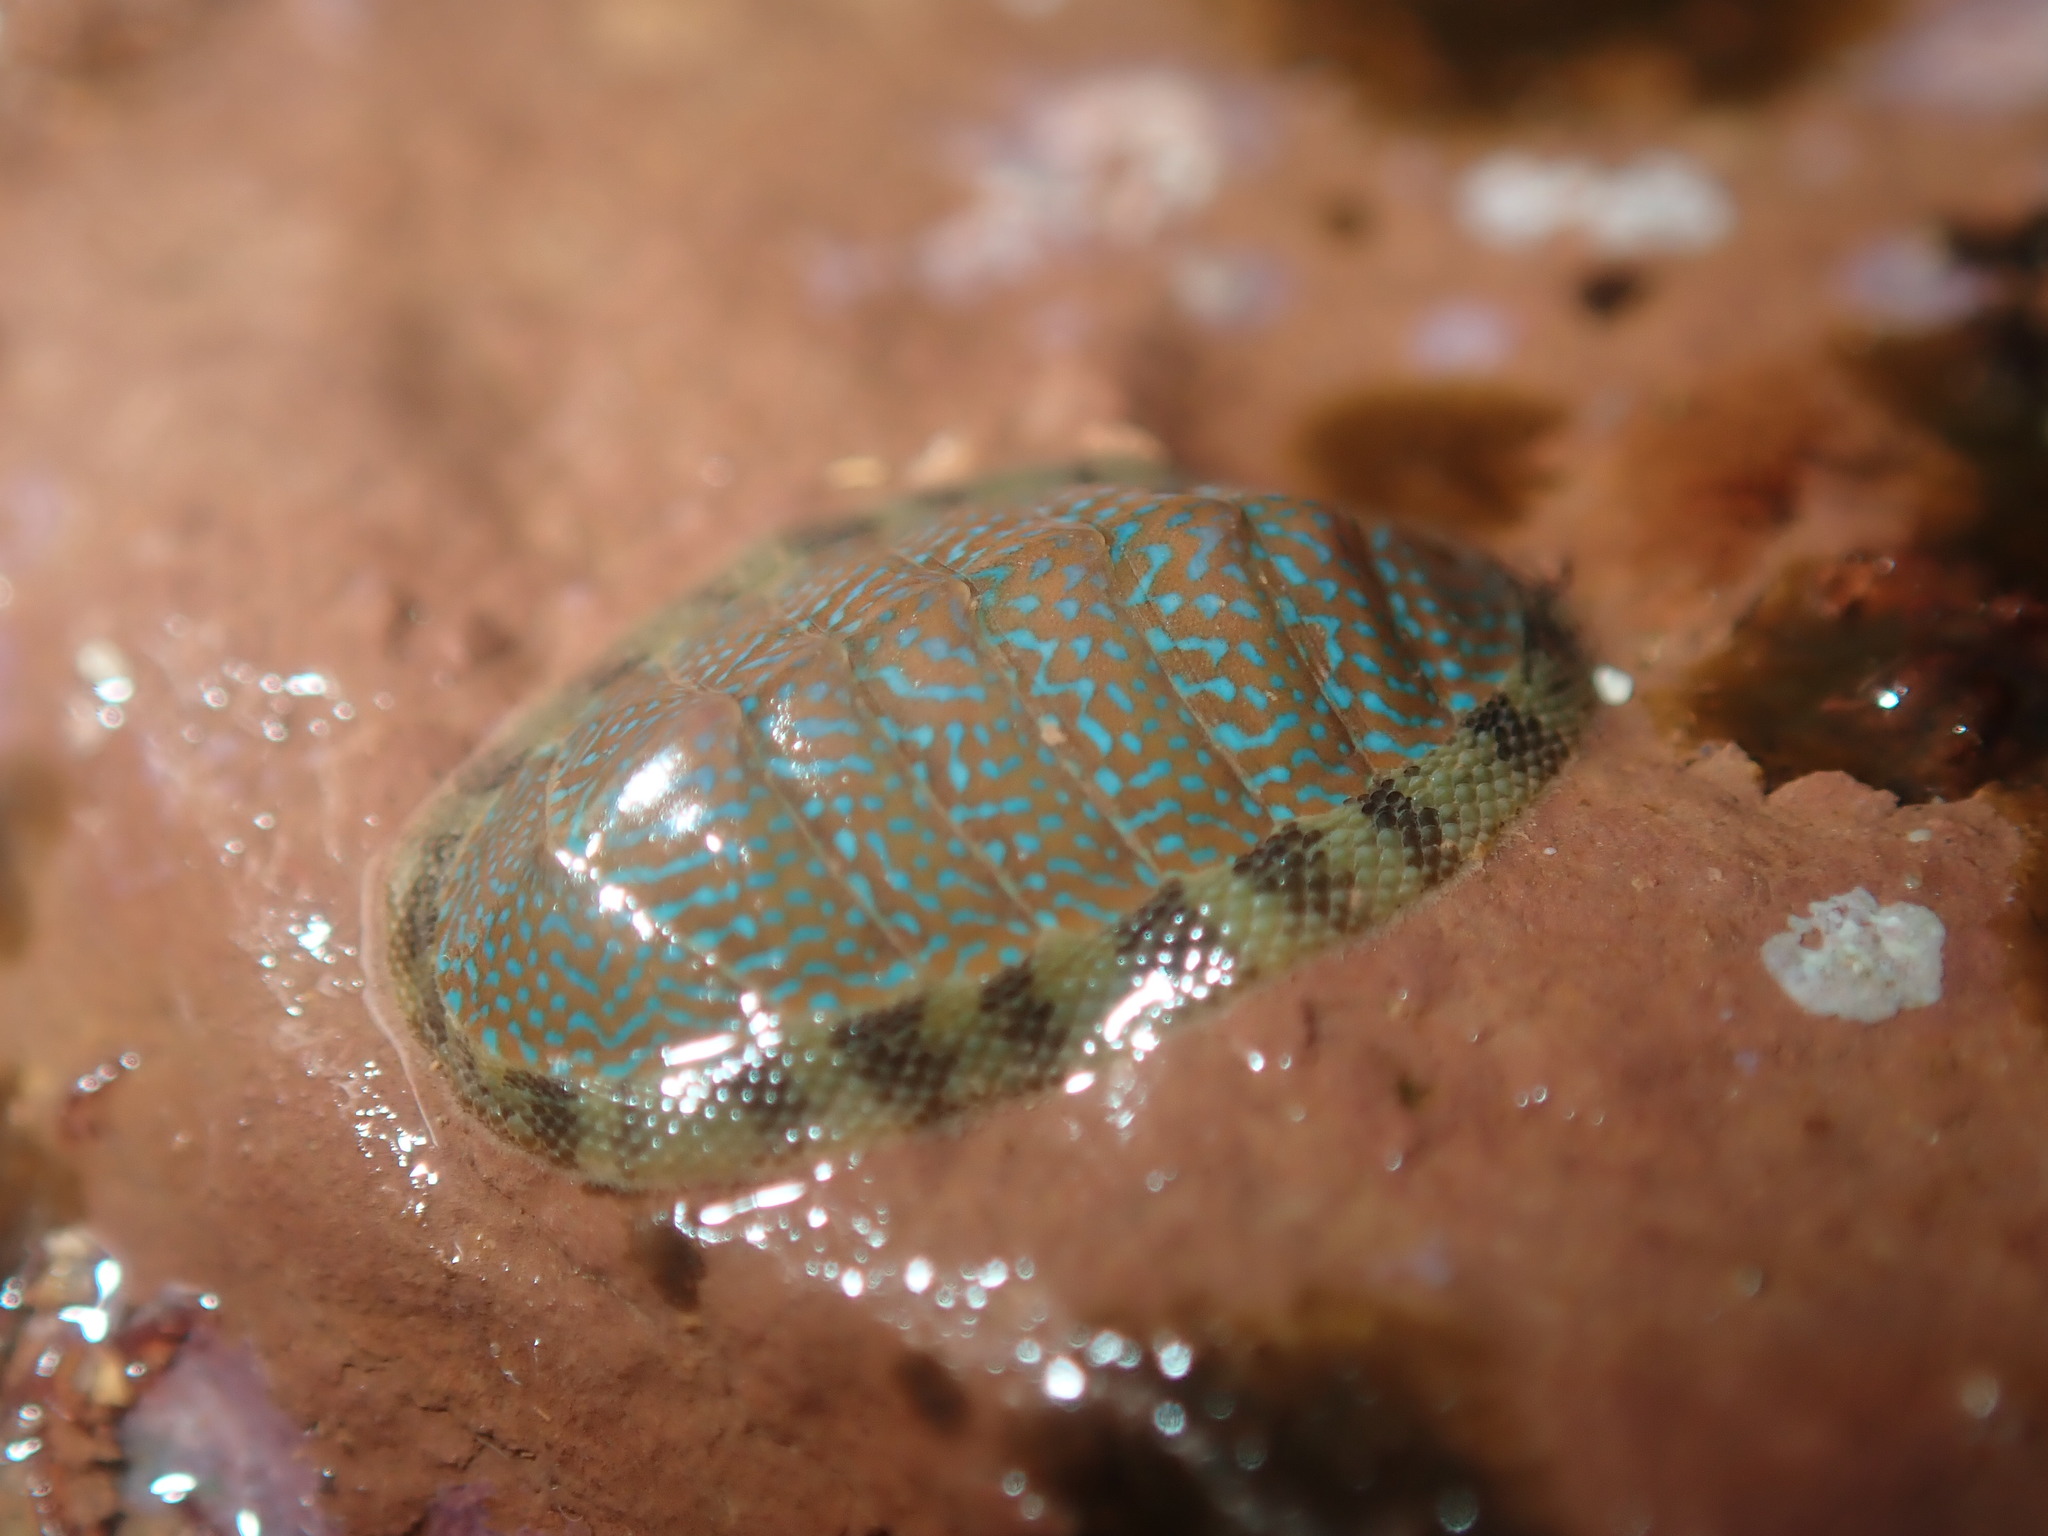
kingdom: Animalia
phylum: Mollusca
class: Polyplacophora
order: Chitonida
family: Ischnochitonidae
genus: Ischnochiton
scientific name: Ischnochiton lentiginosus
